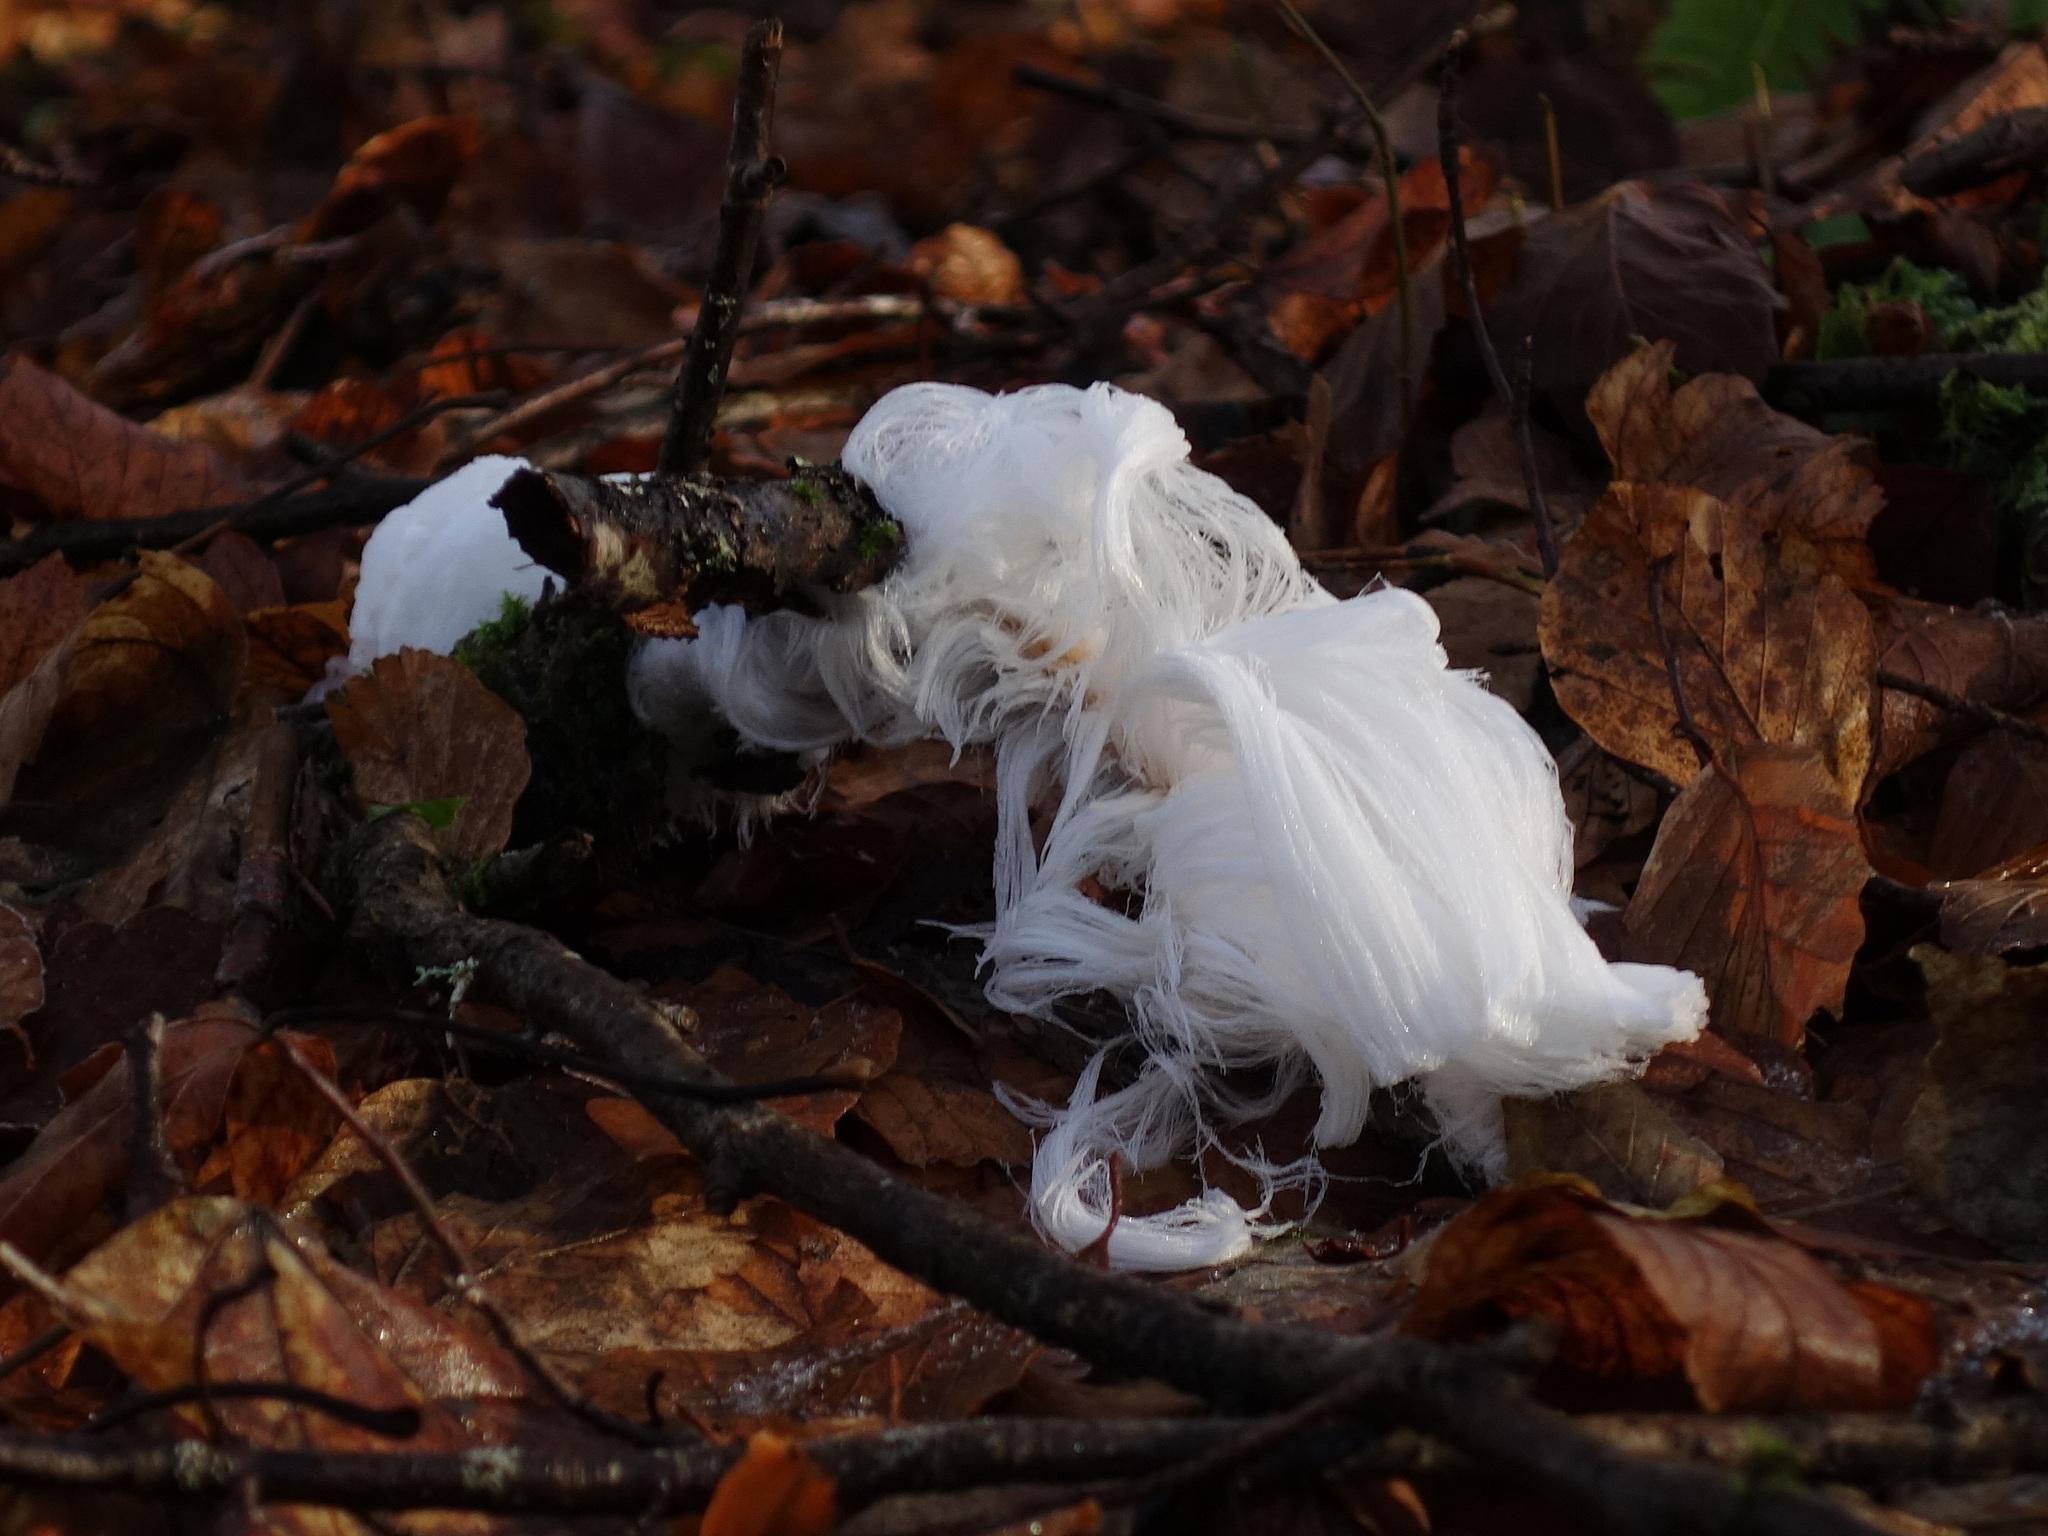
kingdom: Fungi
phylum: Basidiomycota
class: Agaricomycetes
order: Auriculariales
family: Auriculariaceae
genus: Exidiopsis
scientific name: Exidiopsis effusa
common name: Hair ice crust
